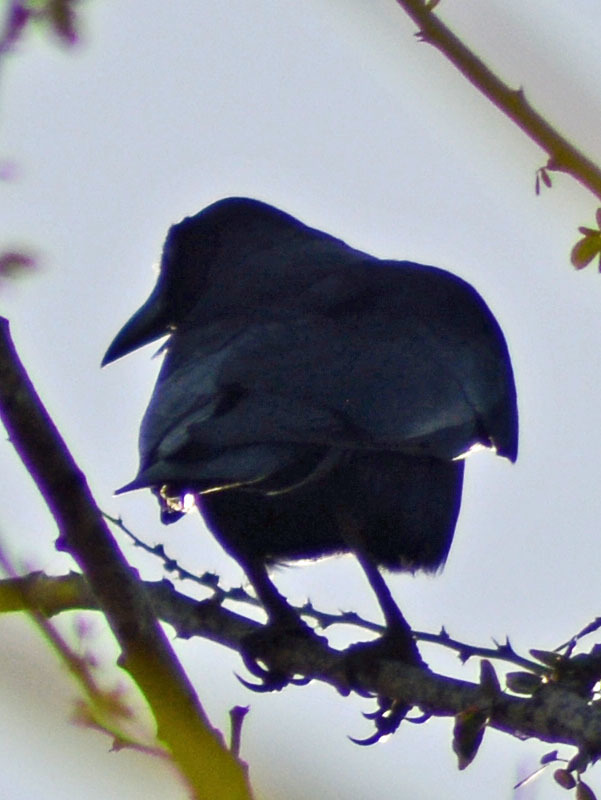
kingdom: Animalia
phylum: Chordata
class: Aves
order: Passeriformes
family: Corvidae
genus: Corvus
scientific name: Corvus sinaloae
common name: Sinaloa crow
